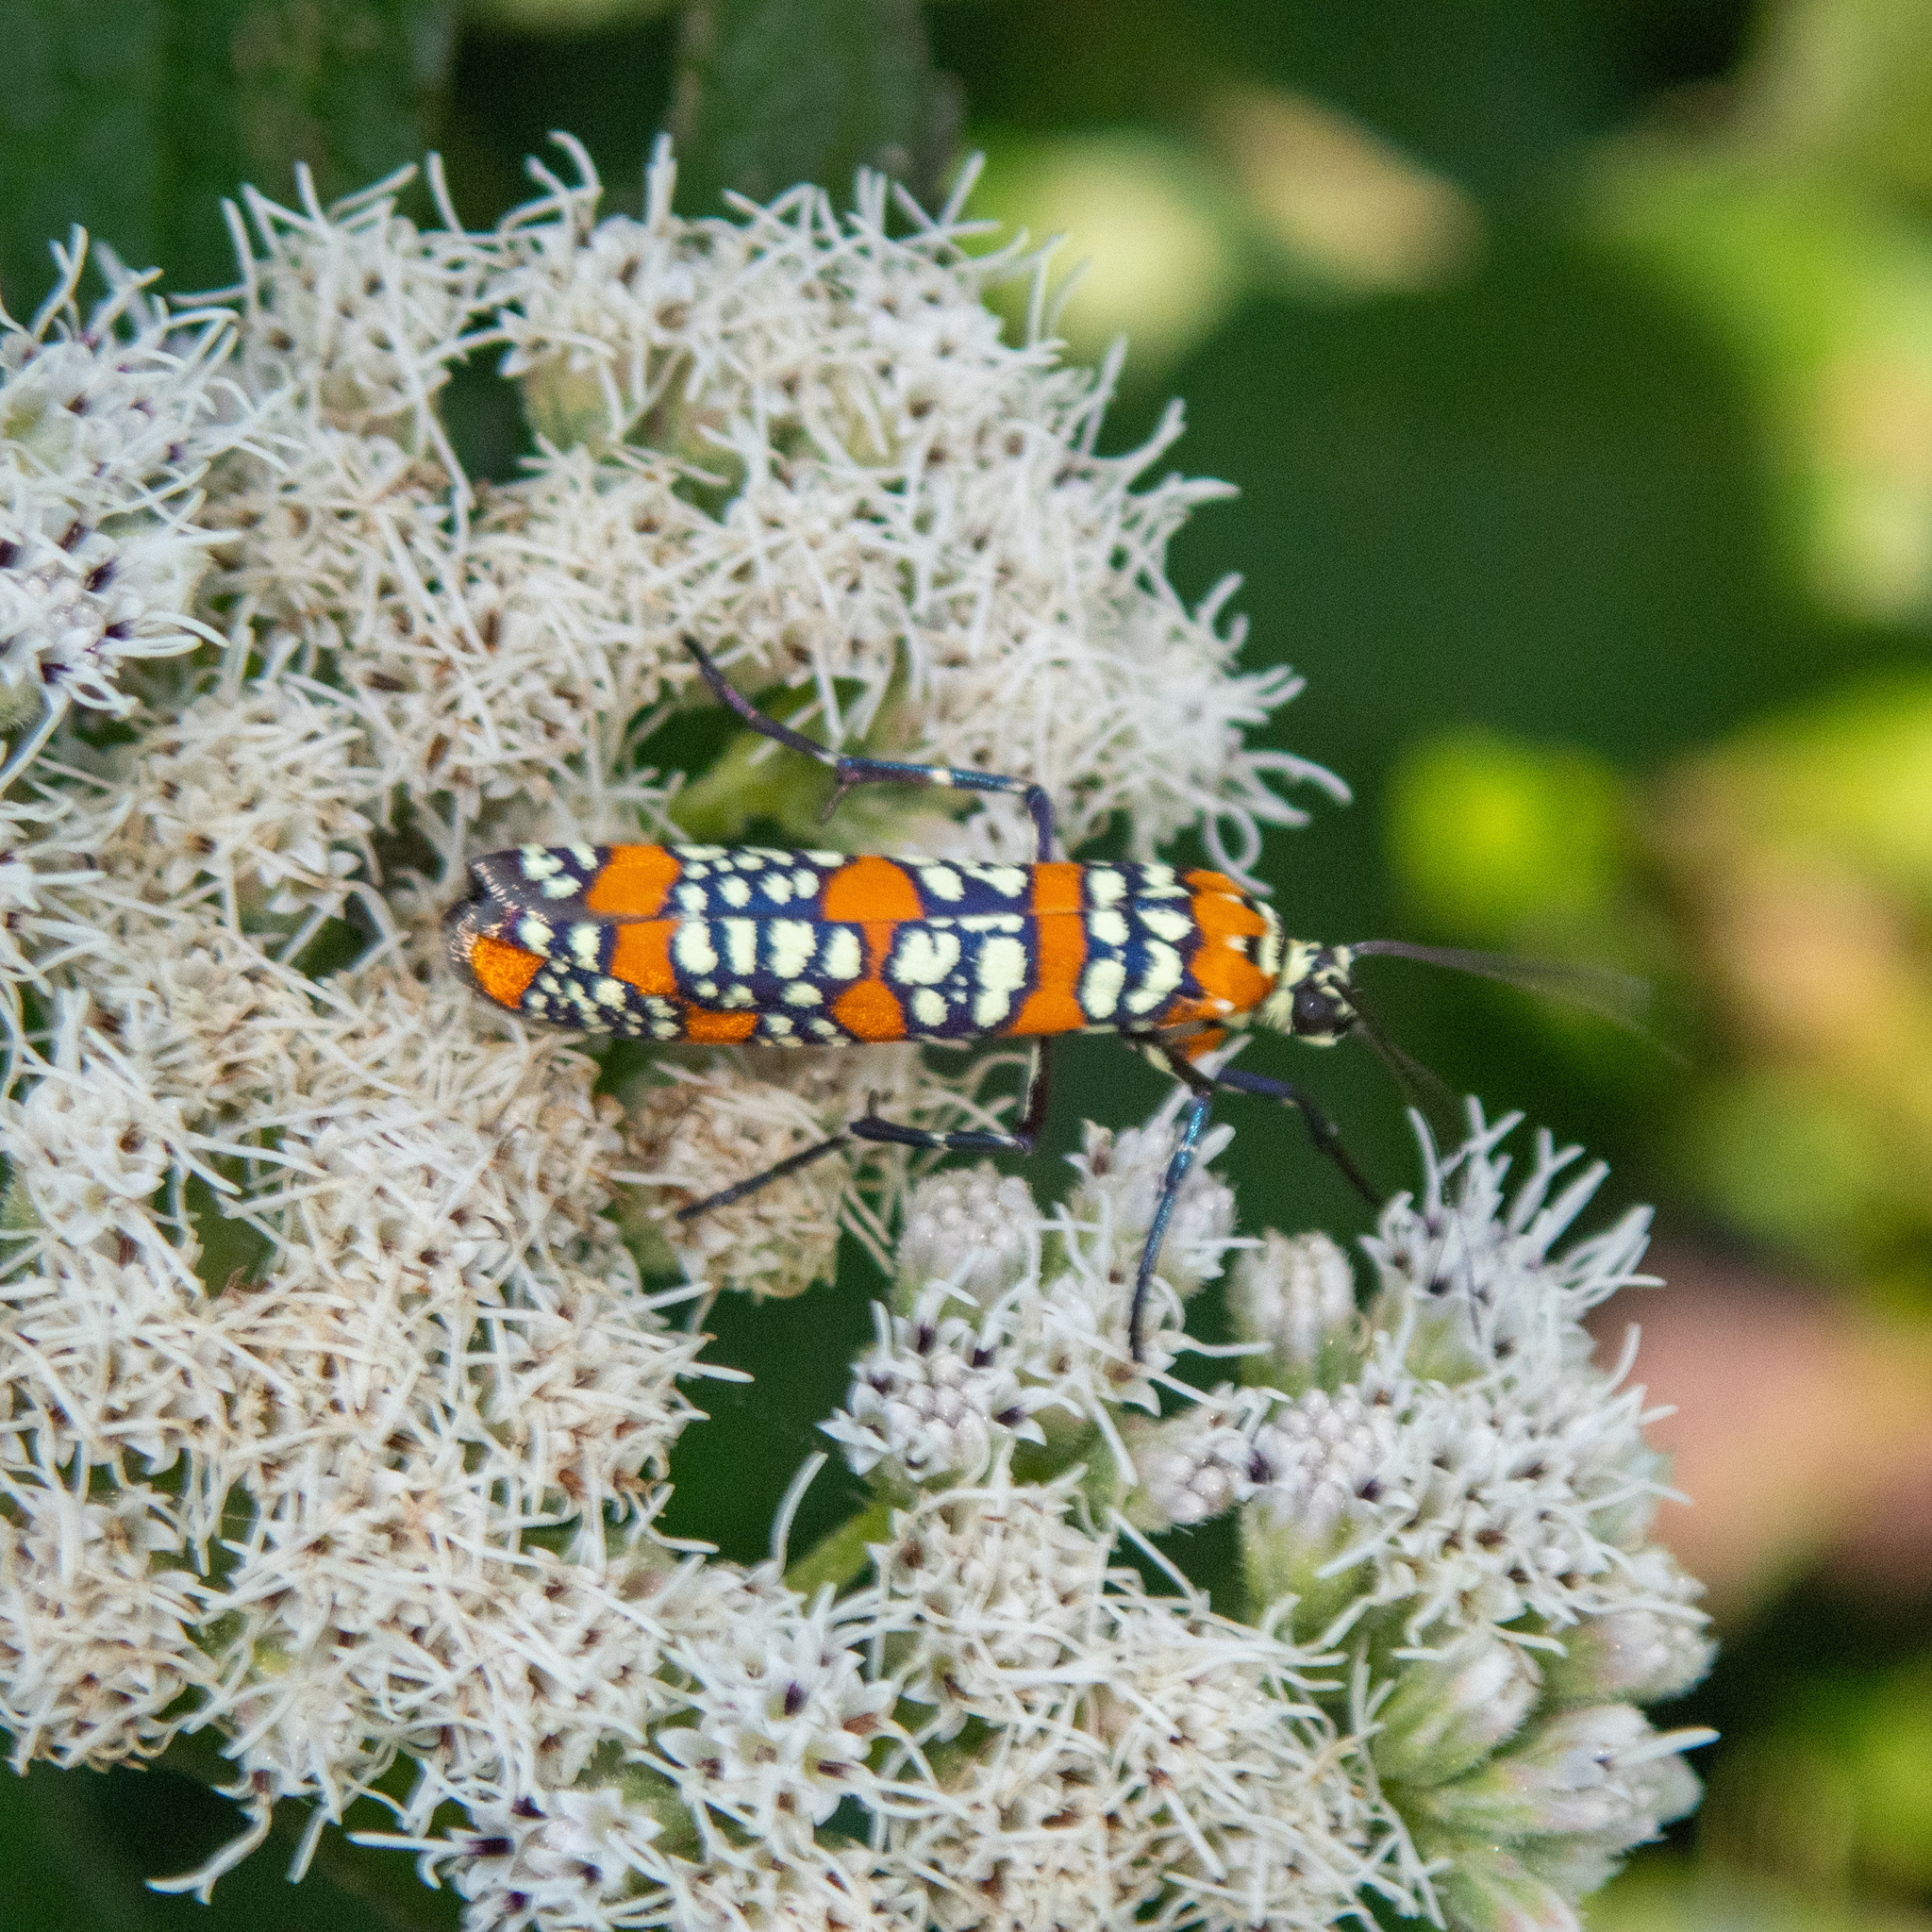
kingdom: Animalia
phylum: Arthropoda
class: Insecta
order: Lepidoptera
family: Attevidae
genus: Atteva
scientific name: Atteva punctella
